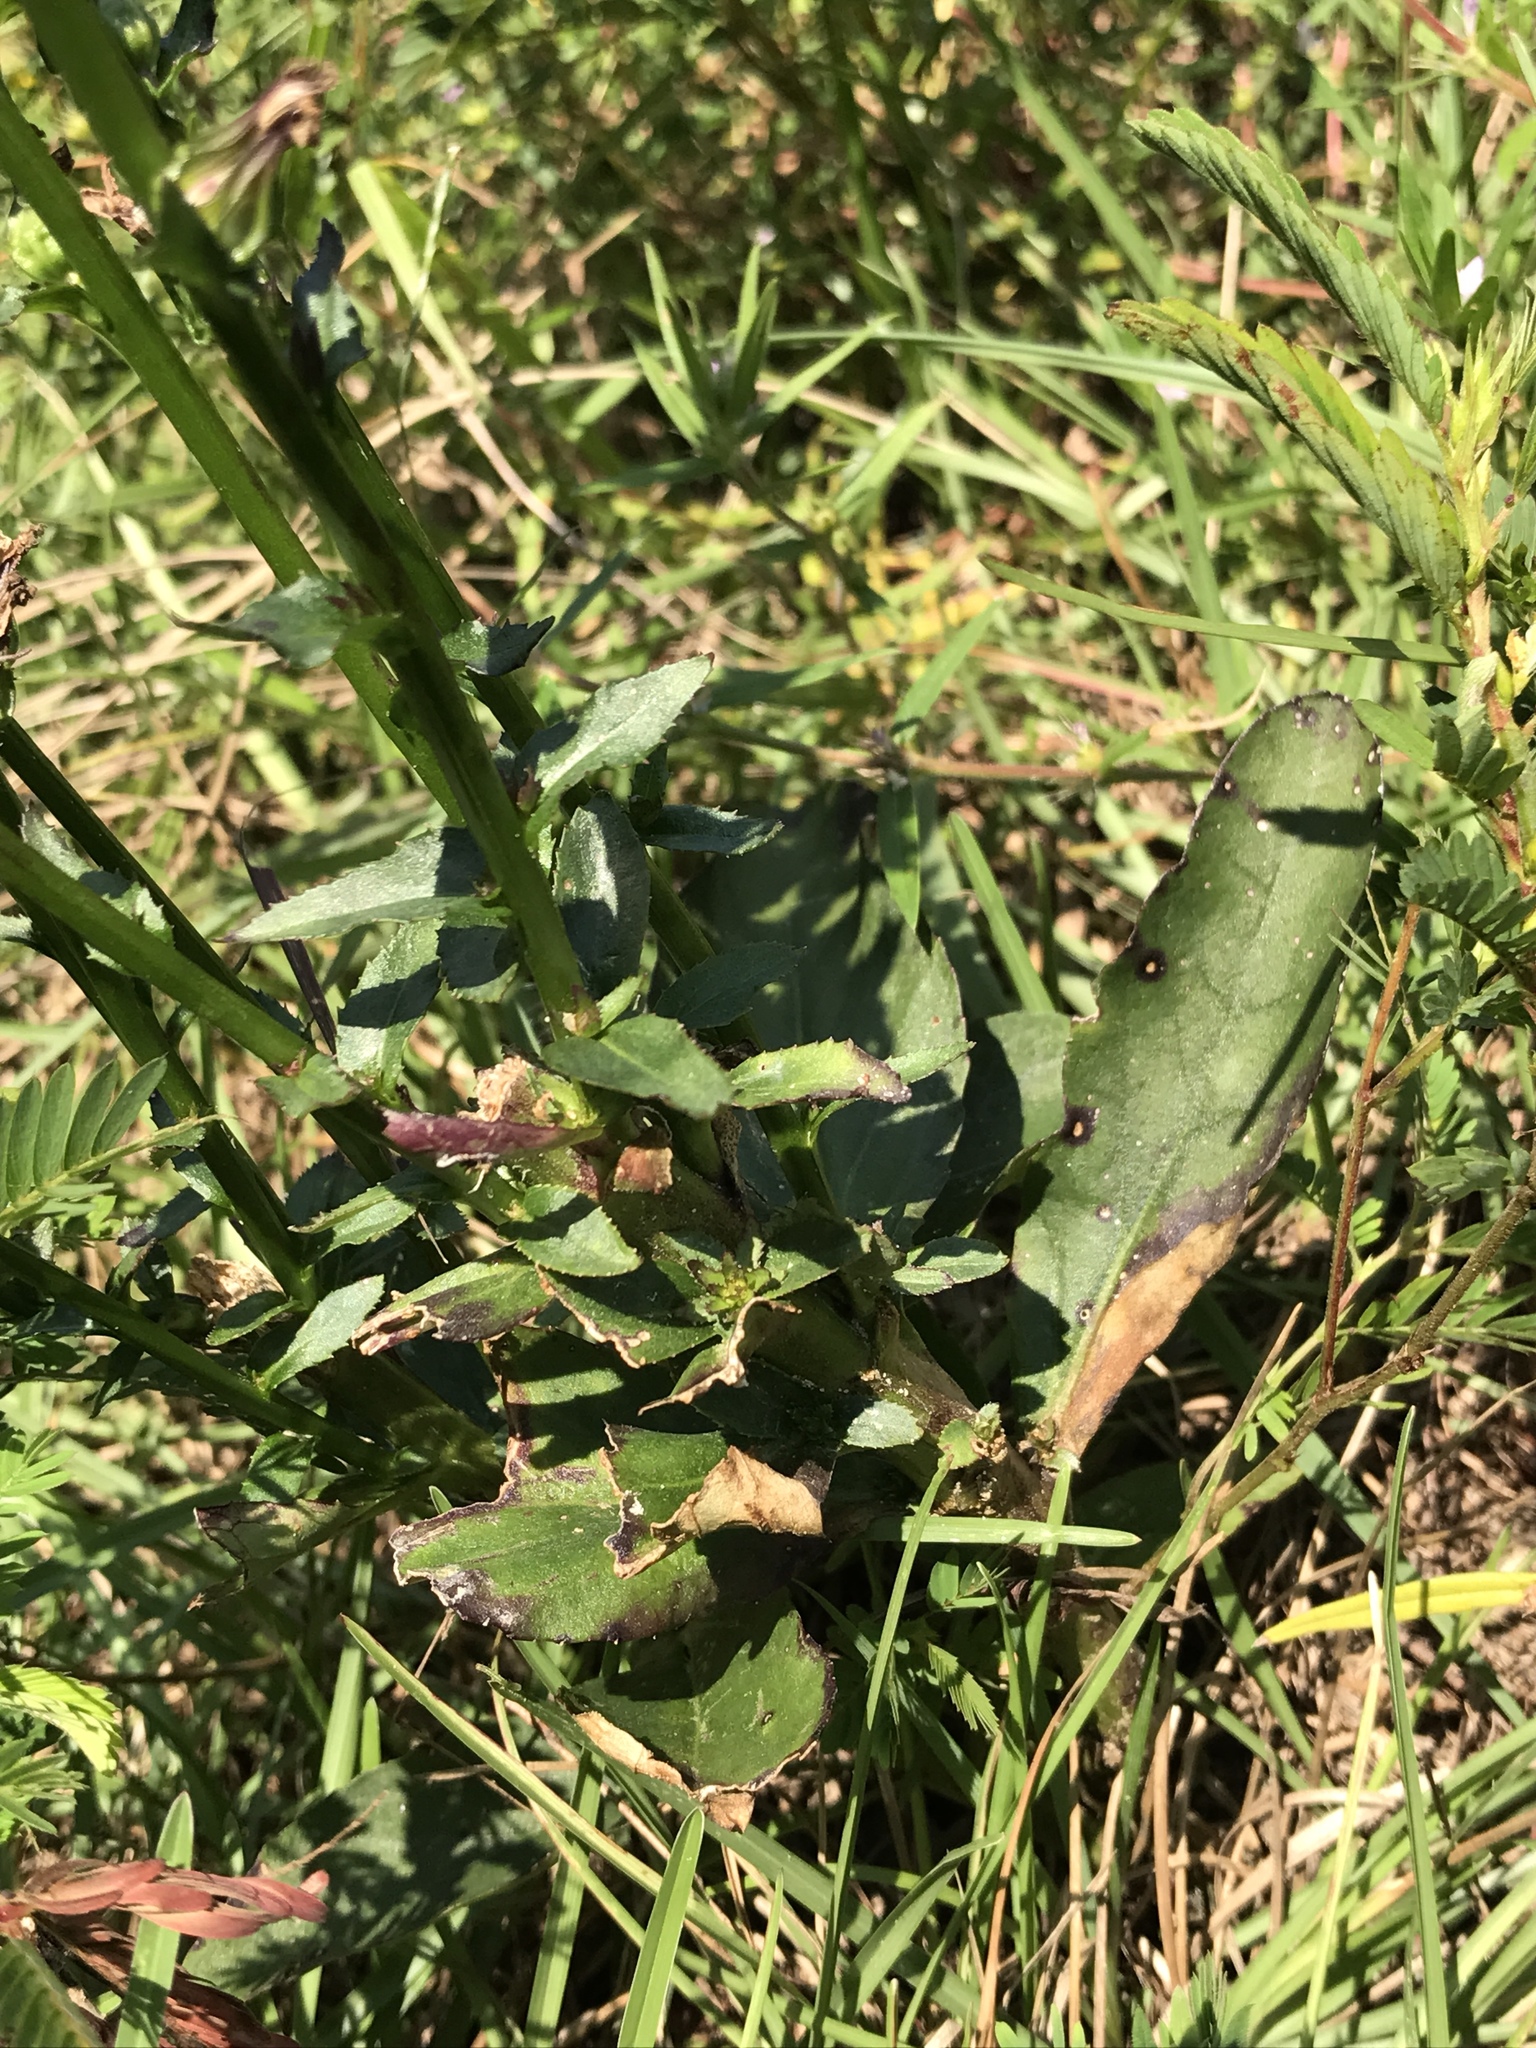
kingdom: Plantae
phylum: Tracheophyta
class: Magnoliopsida
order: Asterales
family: Campanulaceae
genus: Lobelia
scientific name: Lobelia puberula
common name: Purple dewdrop
